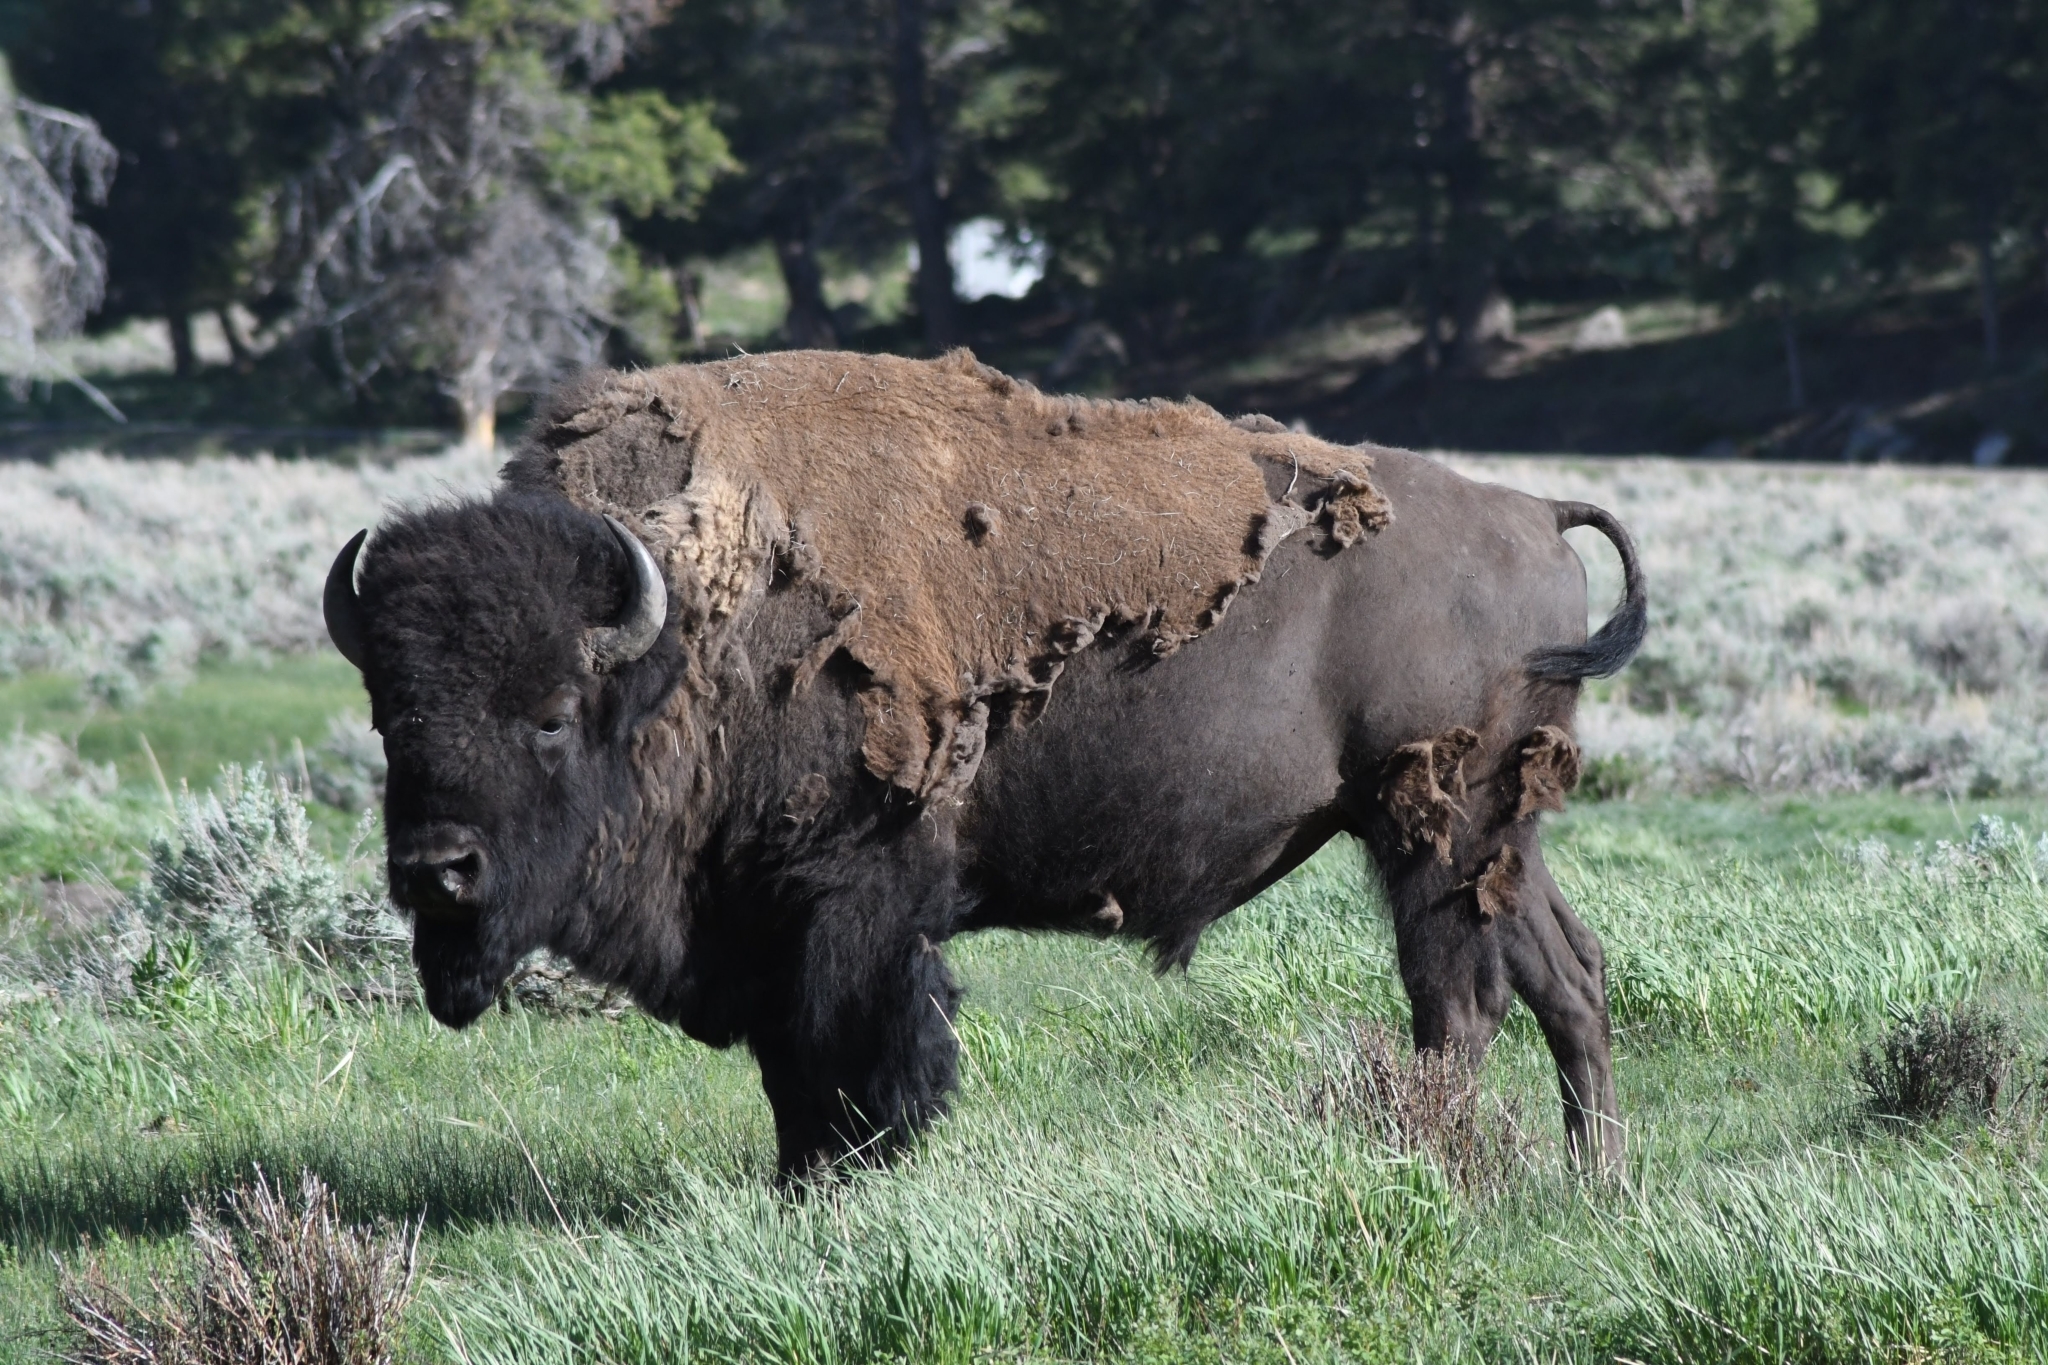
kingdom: Animalia
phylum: Chordata
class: Mammalia
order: Artiodactyla
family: Bovidae
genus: Bison
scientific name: Bison bison
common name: American bison
